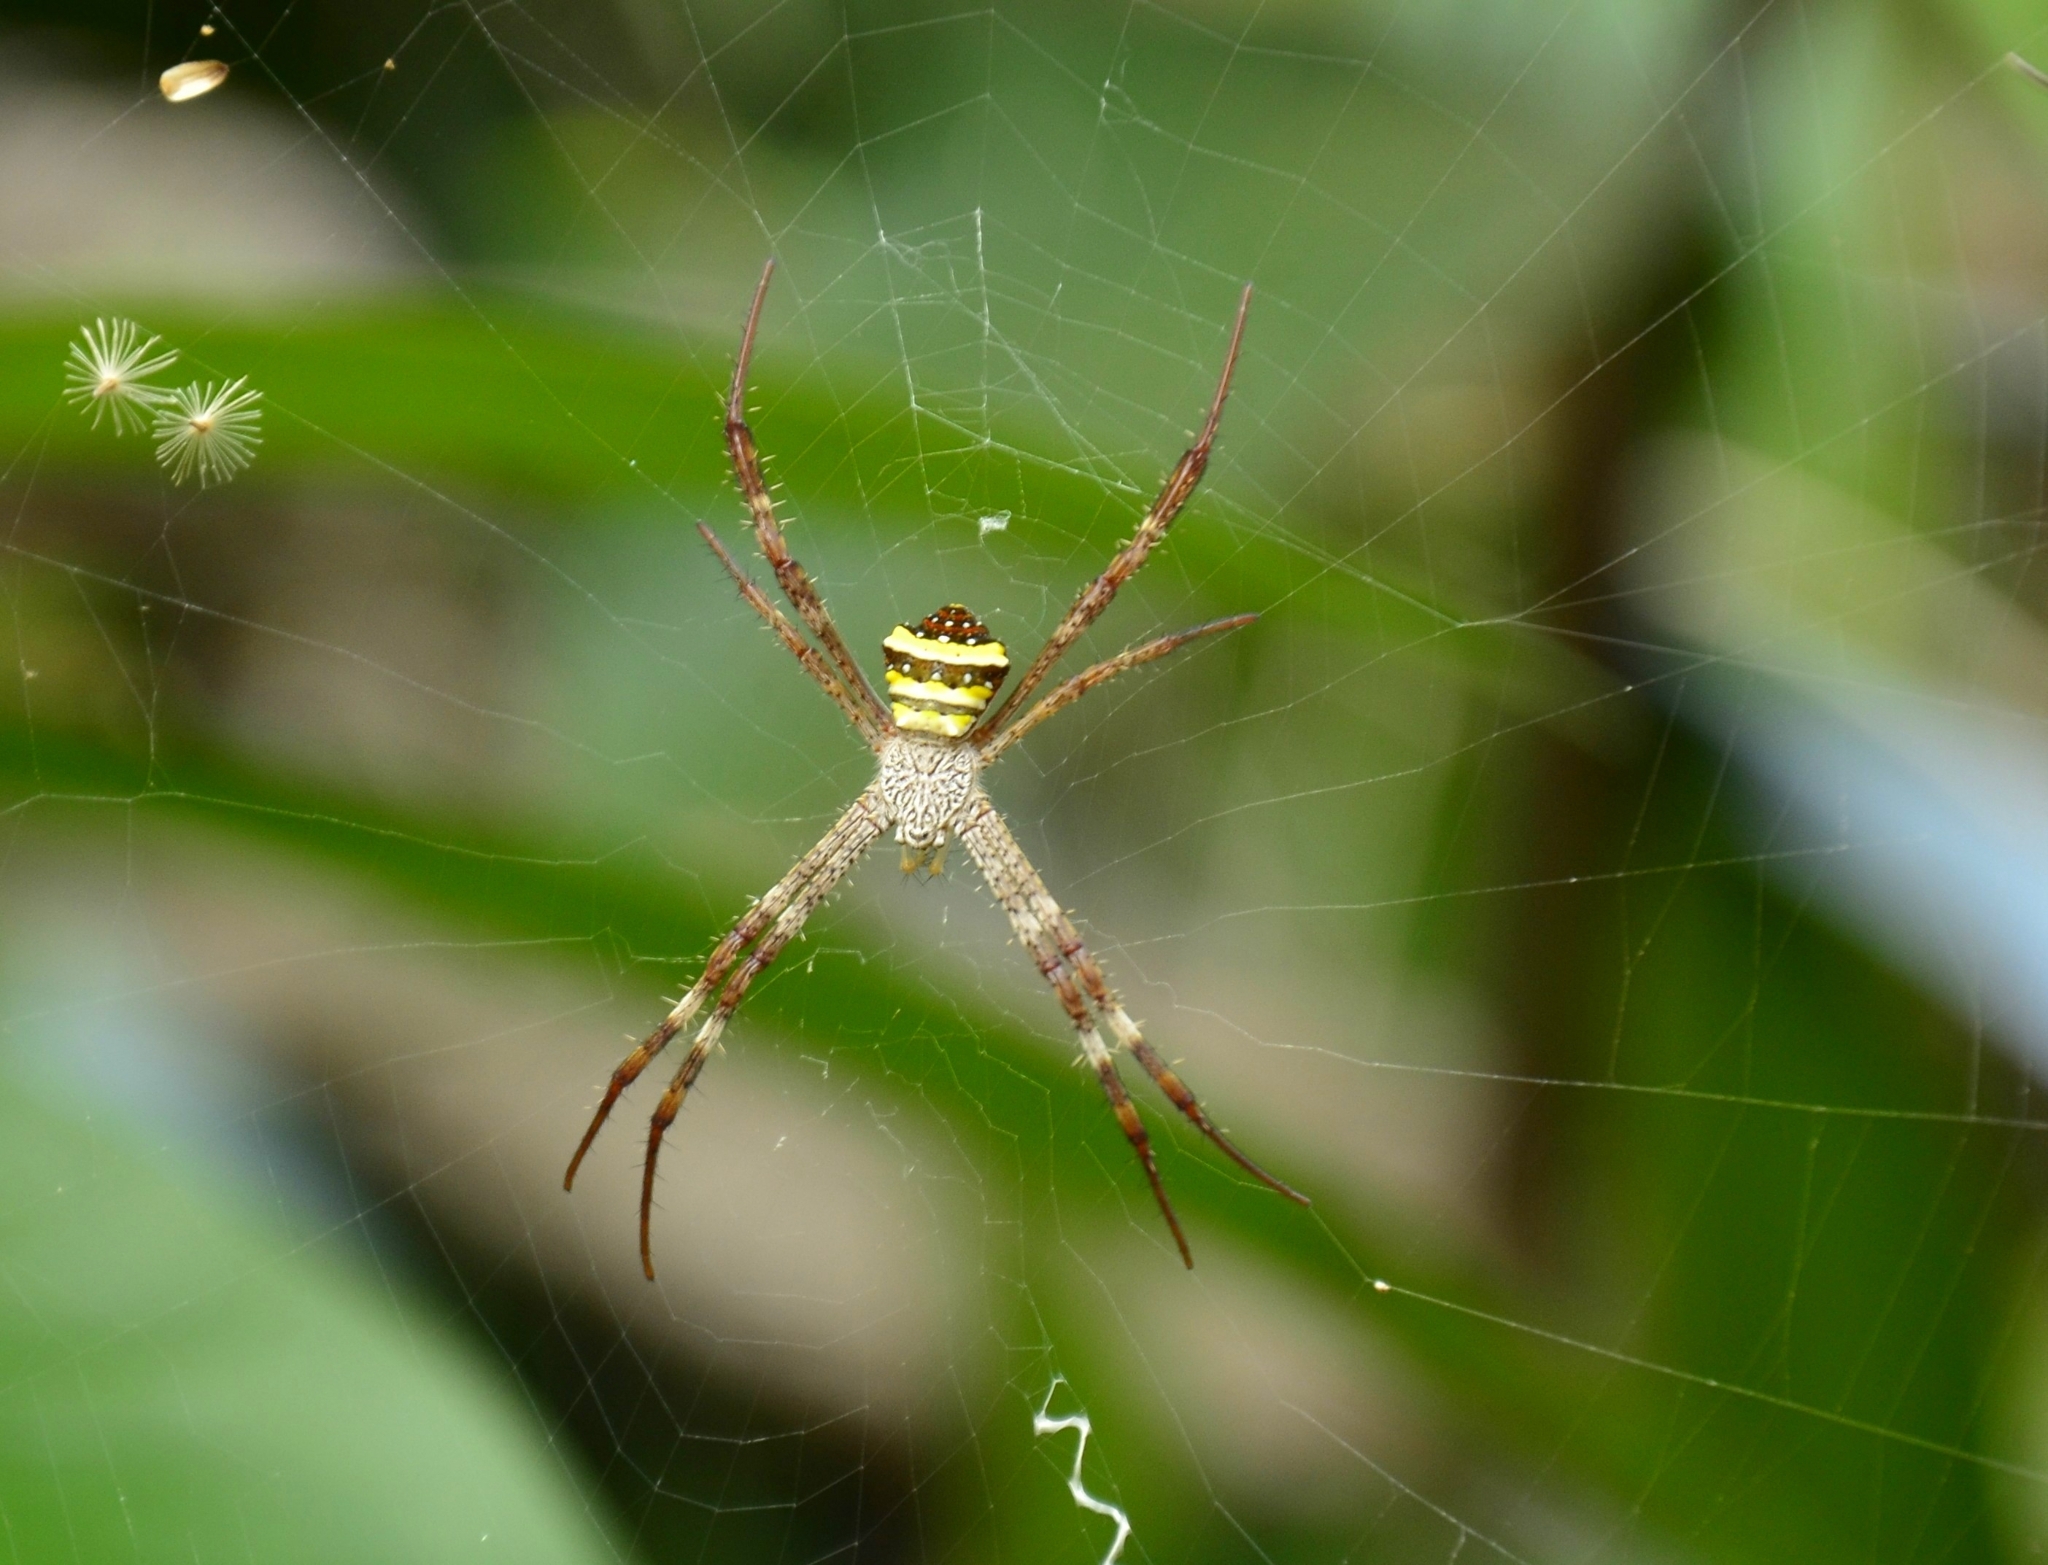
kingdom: Animalia
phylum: Arthropoda
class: Arachnida
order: Araneae
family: Araneidae
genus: Argiope
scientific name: Argiope pulchella
